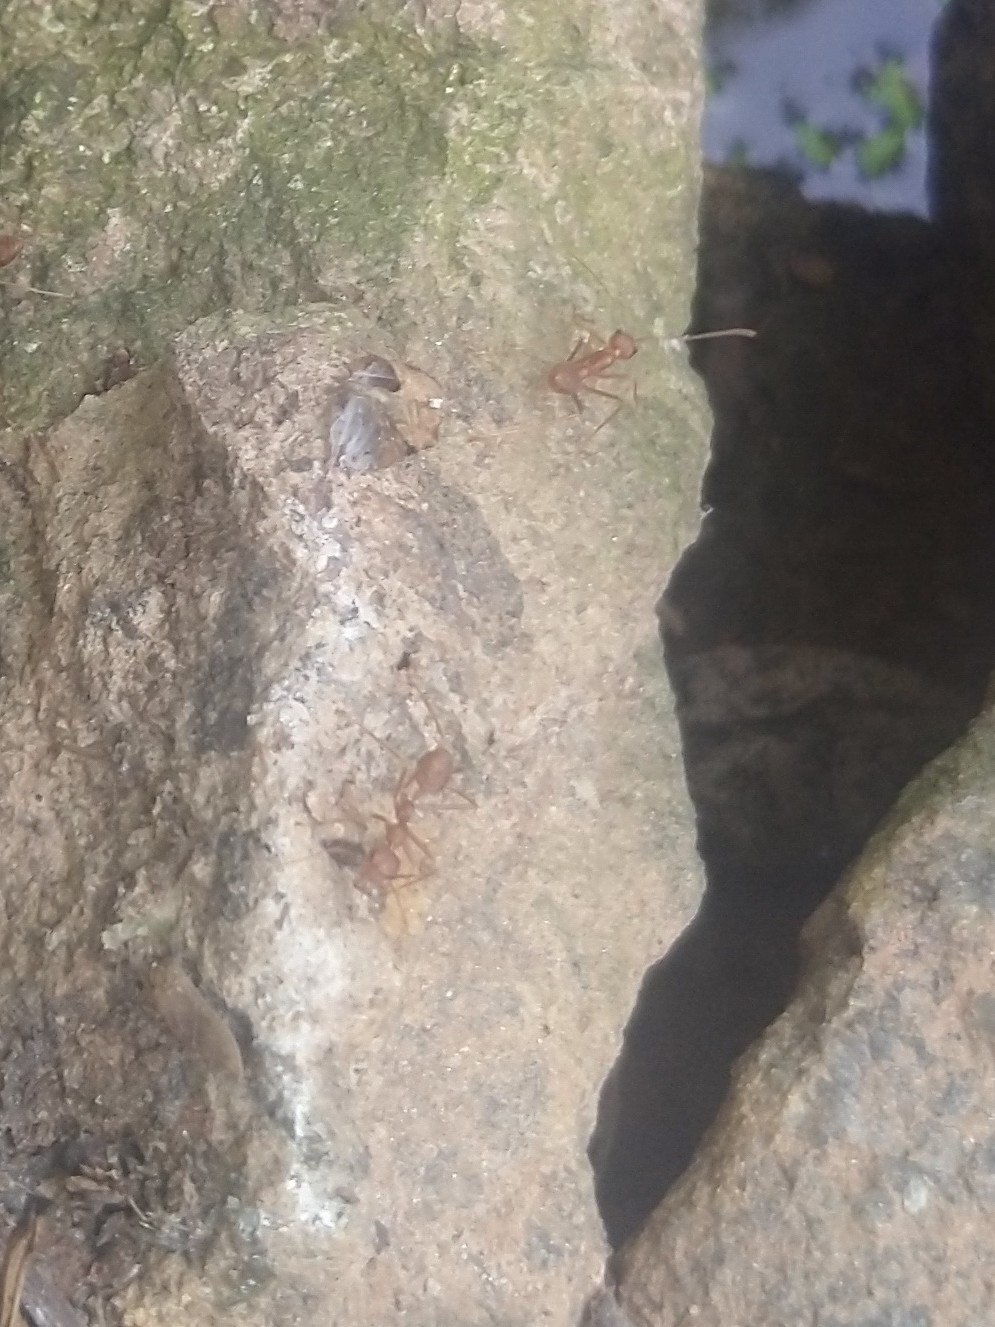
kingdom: Animalia
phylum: Arthropoda
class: Insecta
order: Hymenoptera
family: Formicidae
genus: Oecophylla
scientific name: Oecophylla smaragdina
